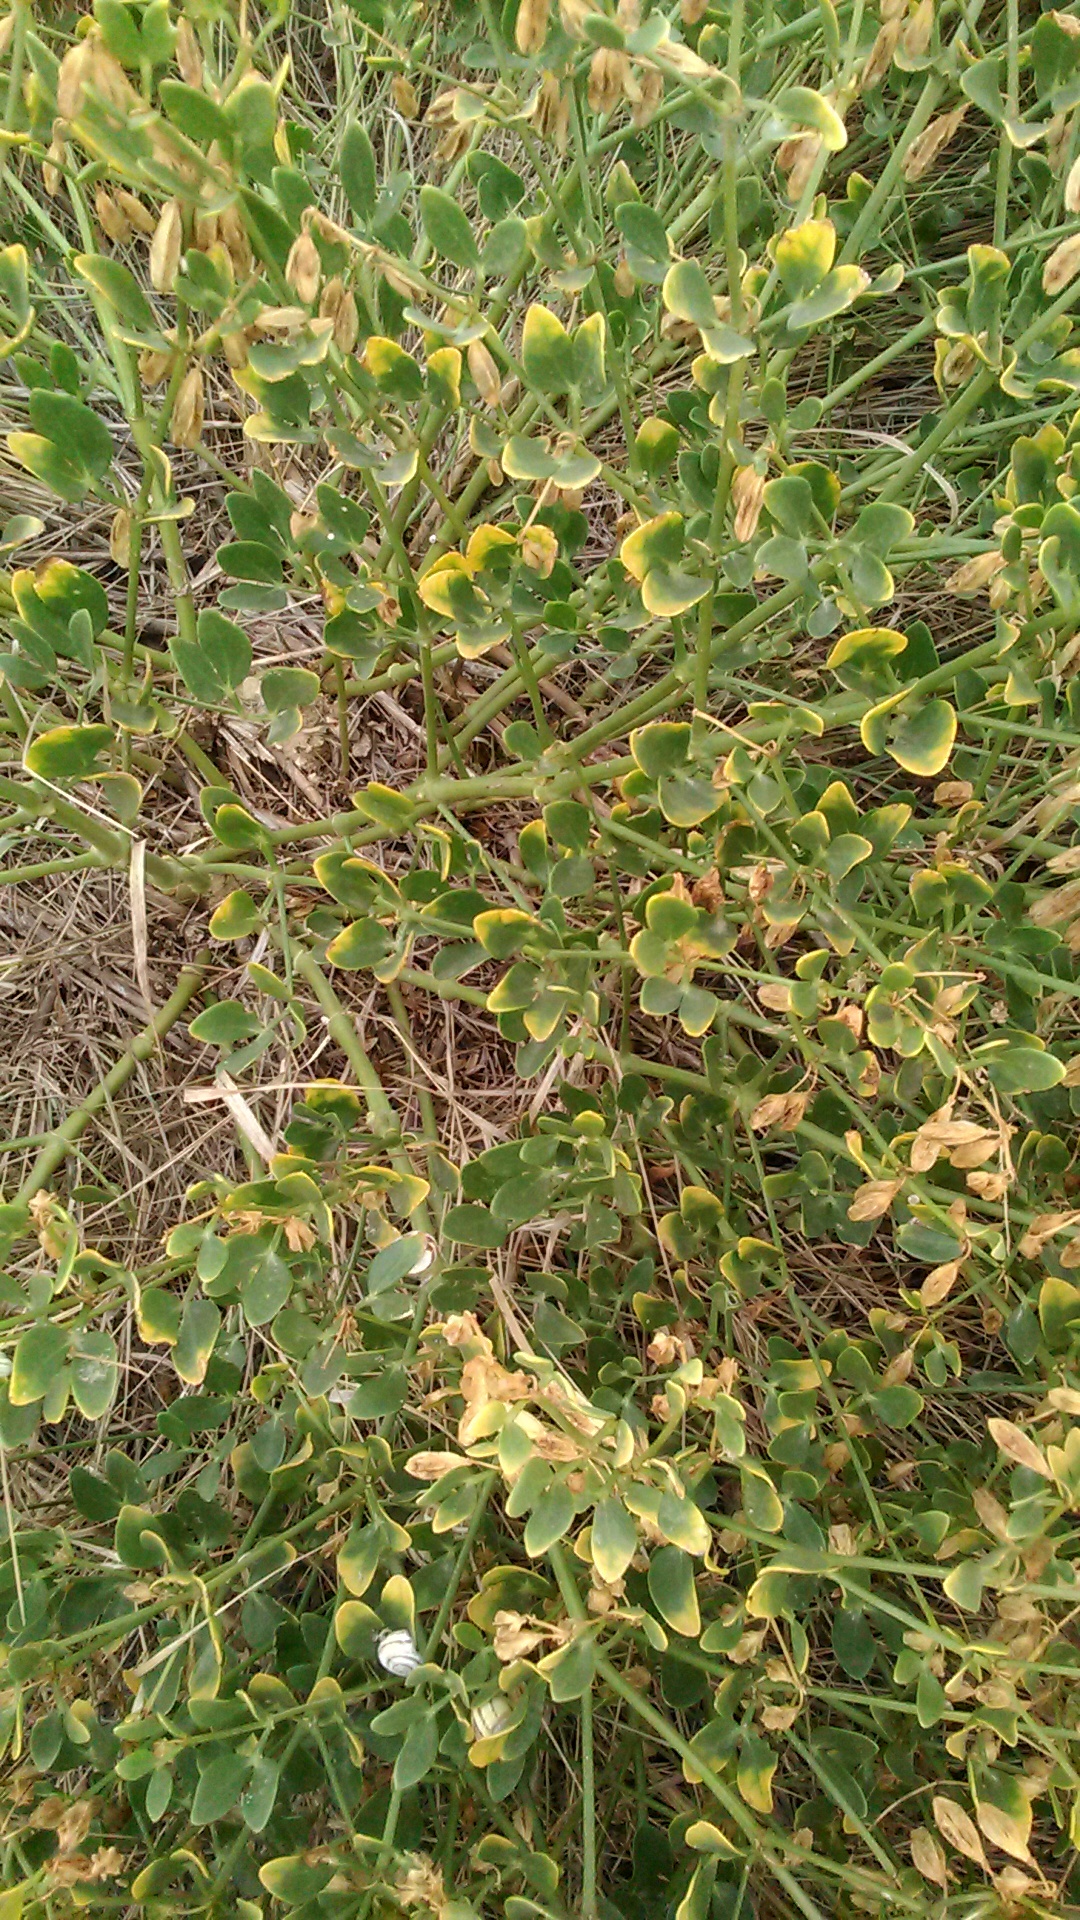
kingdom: Plantae
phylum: Tracheophyta
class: Magnoliopsida
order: Zygophyllales
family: Zygophyllaceae
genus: Zygophyllum
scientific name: Zygophyllum fabago
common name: Syrian beancaper
